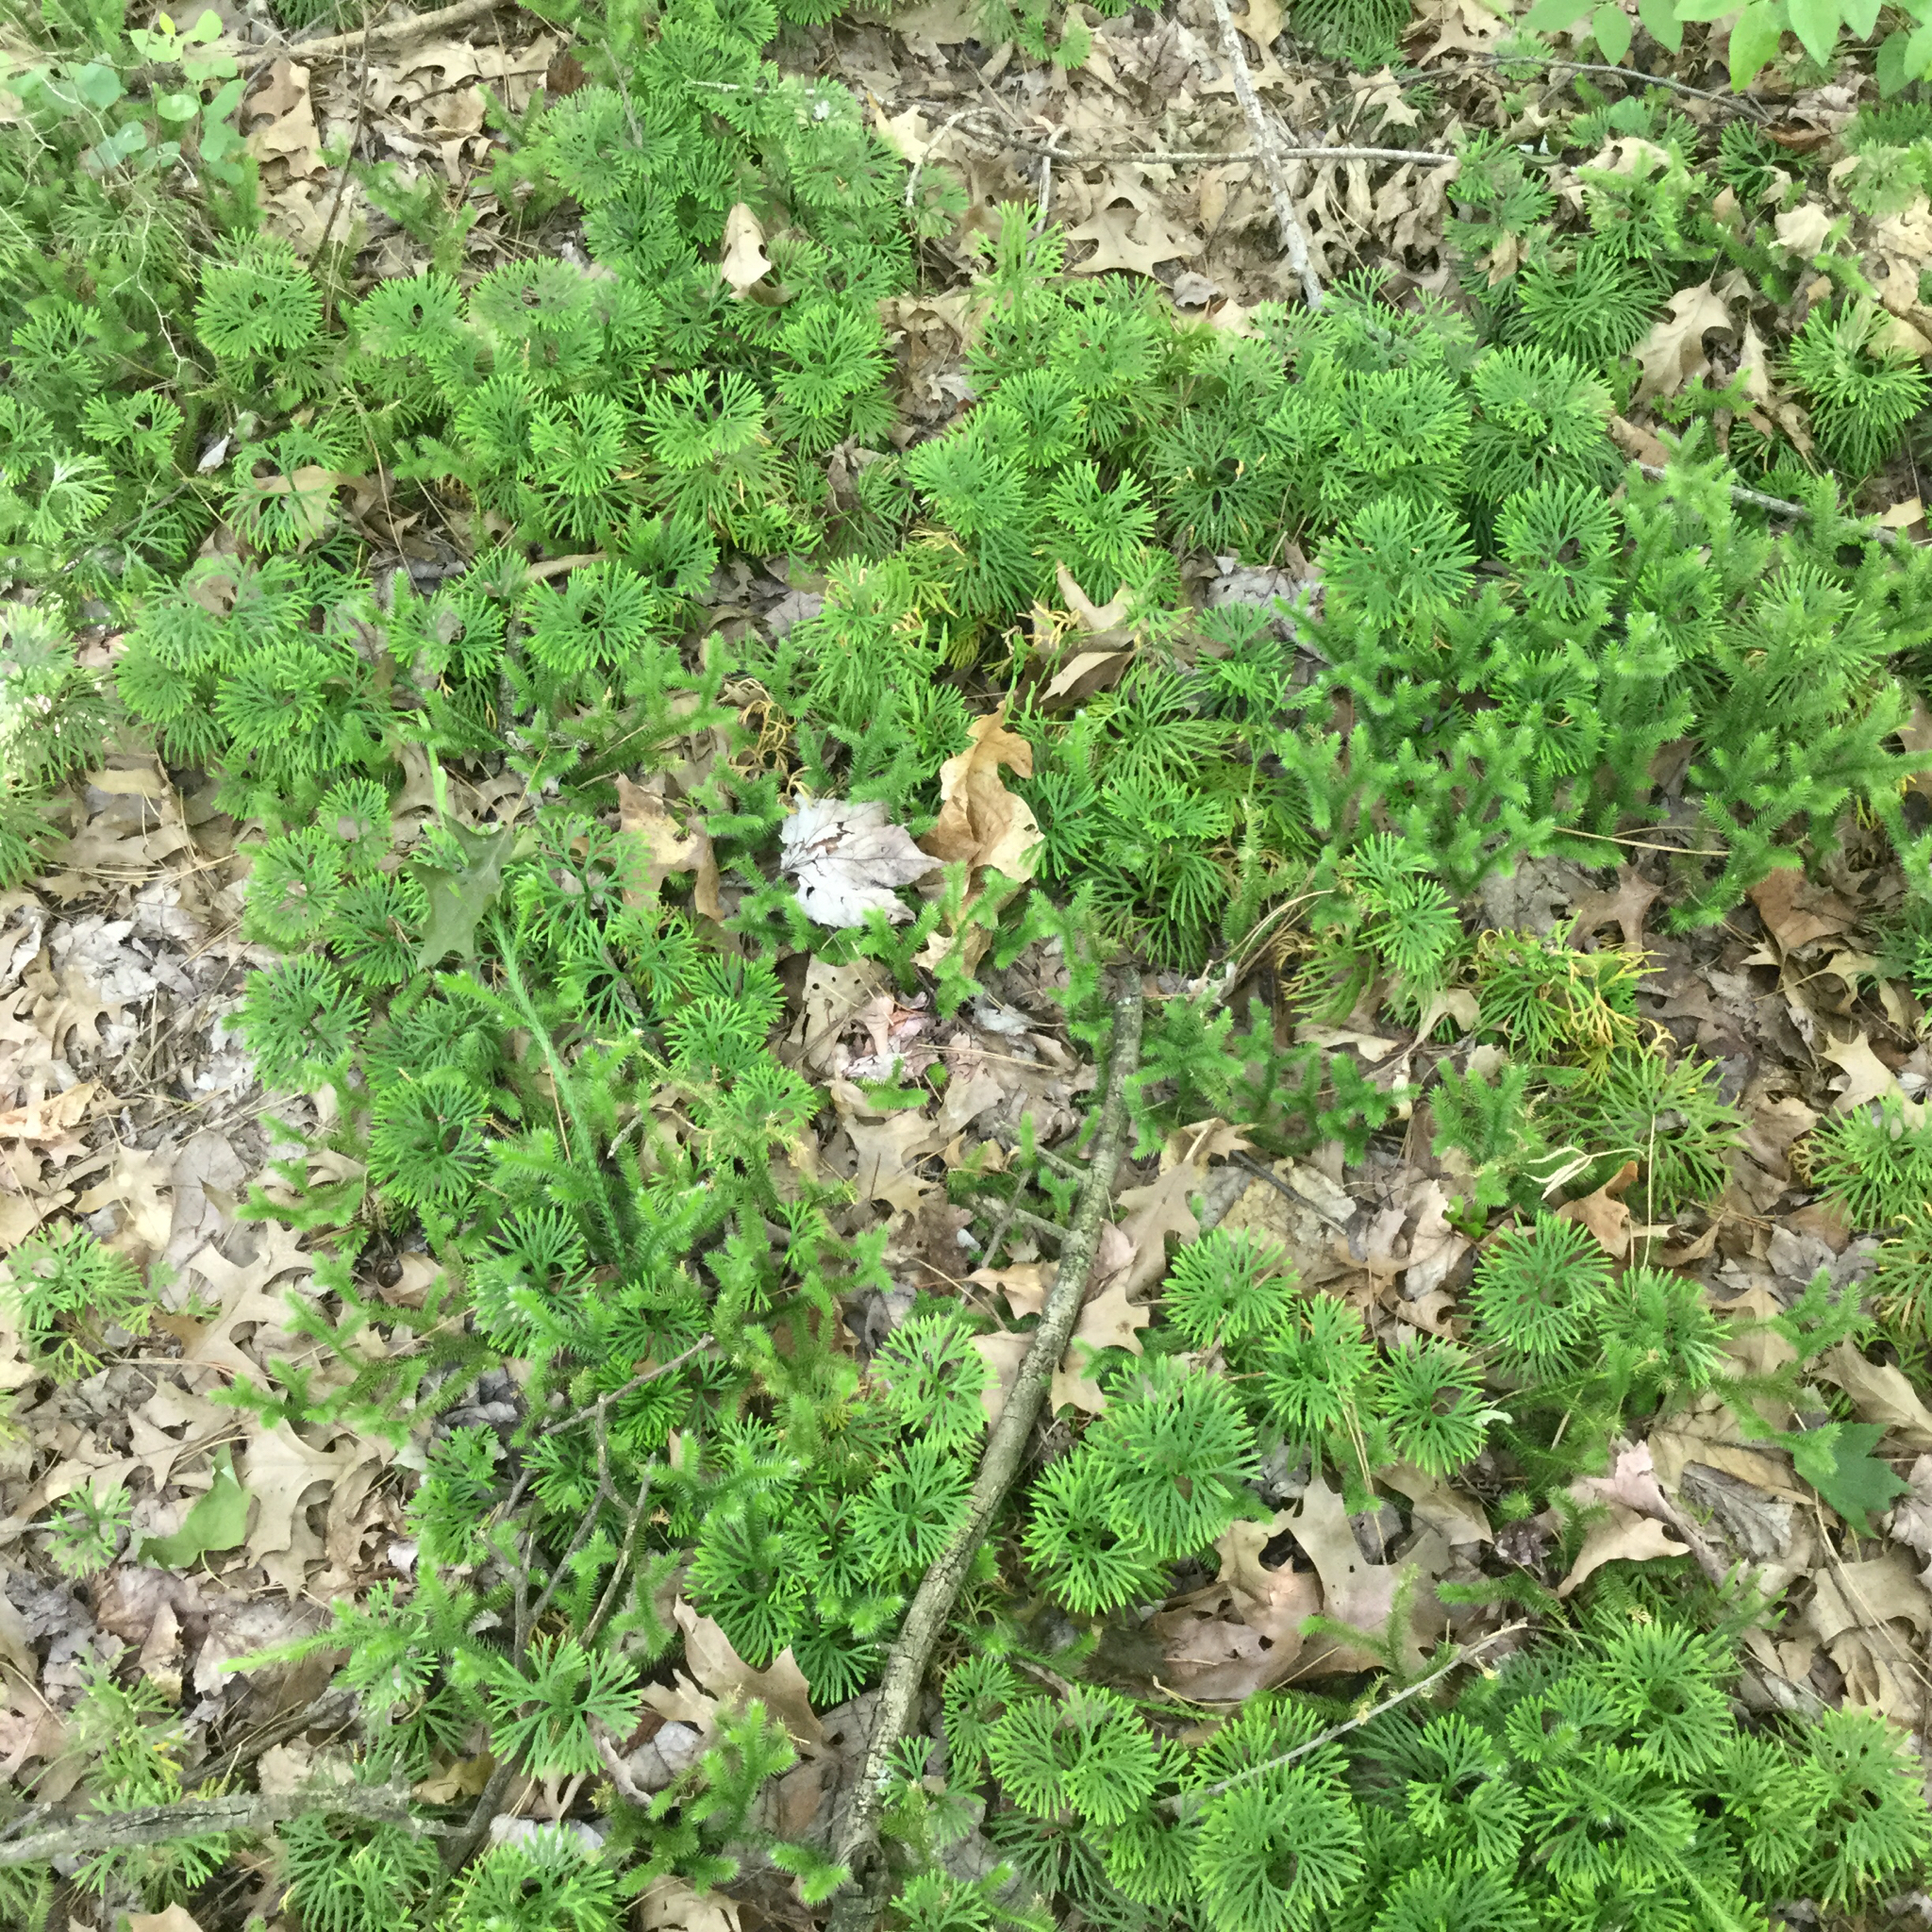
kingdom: Plantae
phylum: Tracheophyta
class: Lycopodiopsida
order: Lycopodiales
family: Lycopodiaceae
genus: Lycopodium
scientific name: Lycopodium clavatum
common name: Stag's-horn clubmoss
